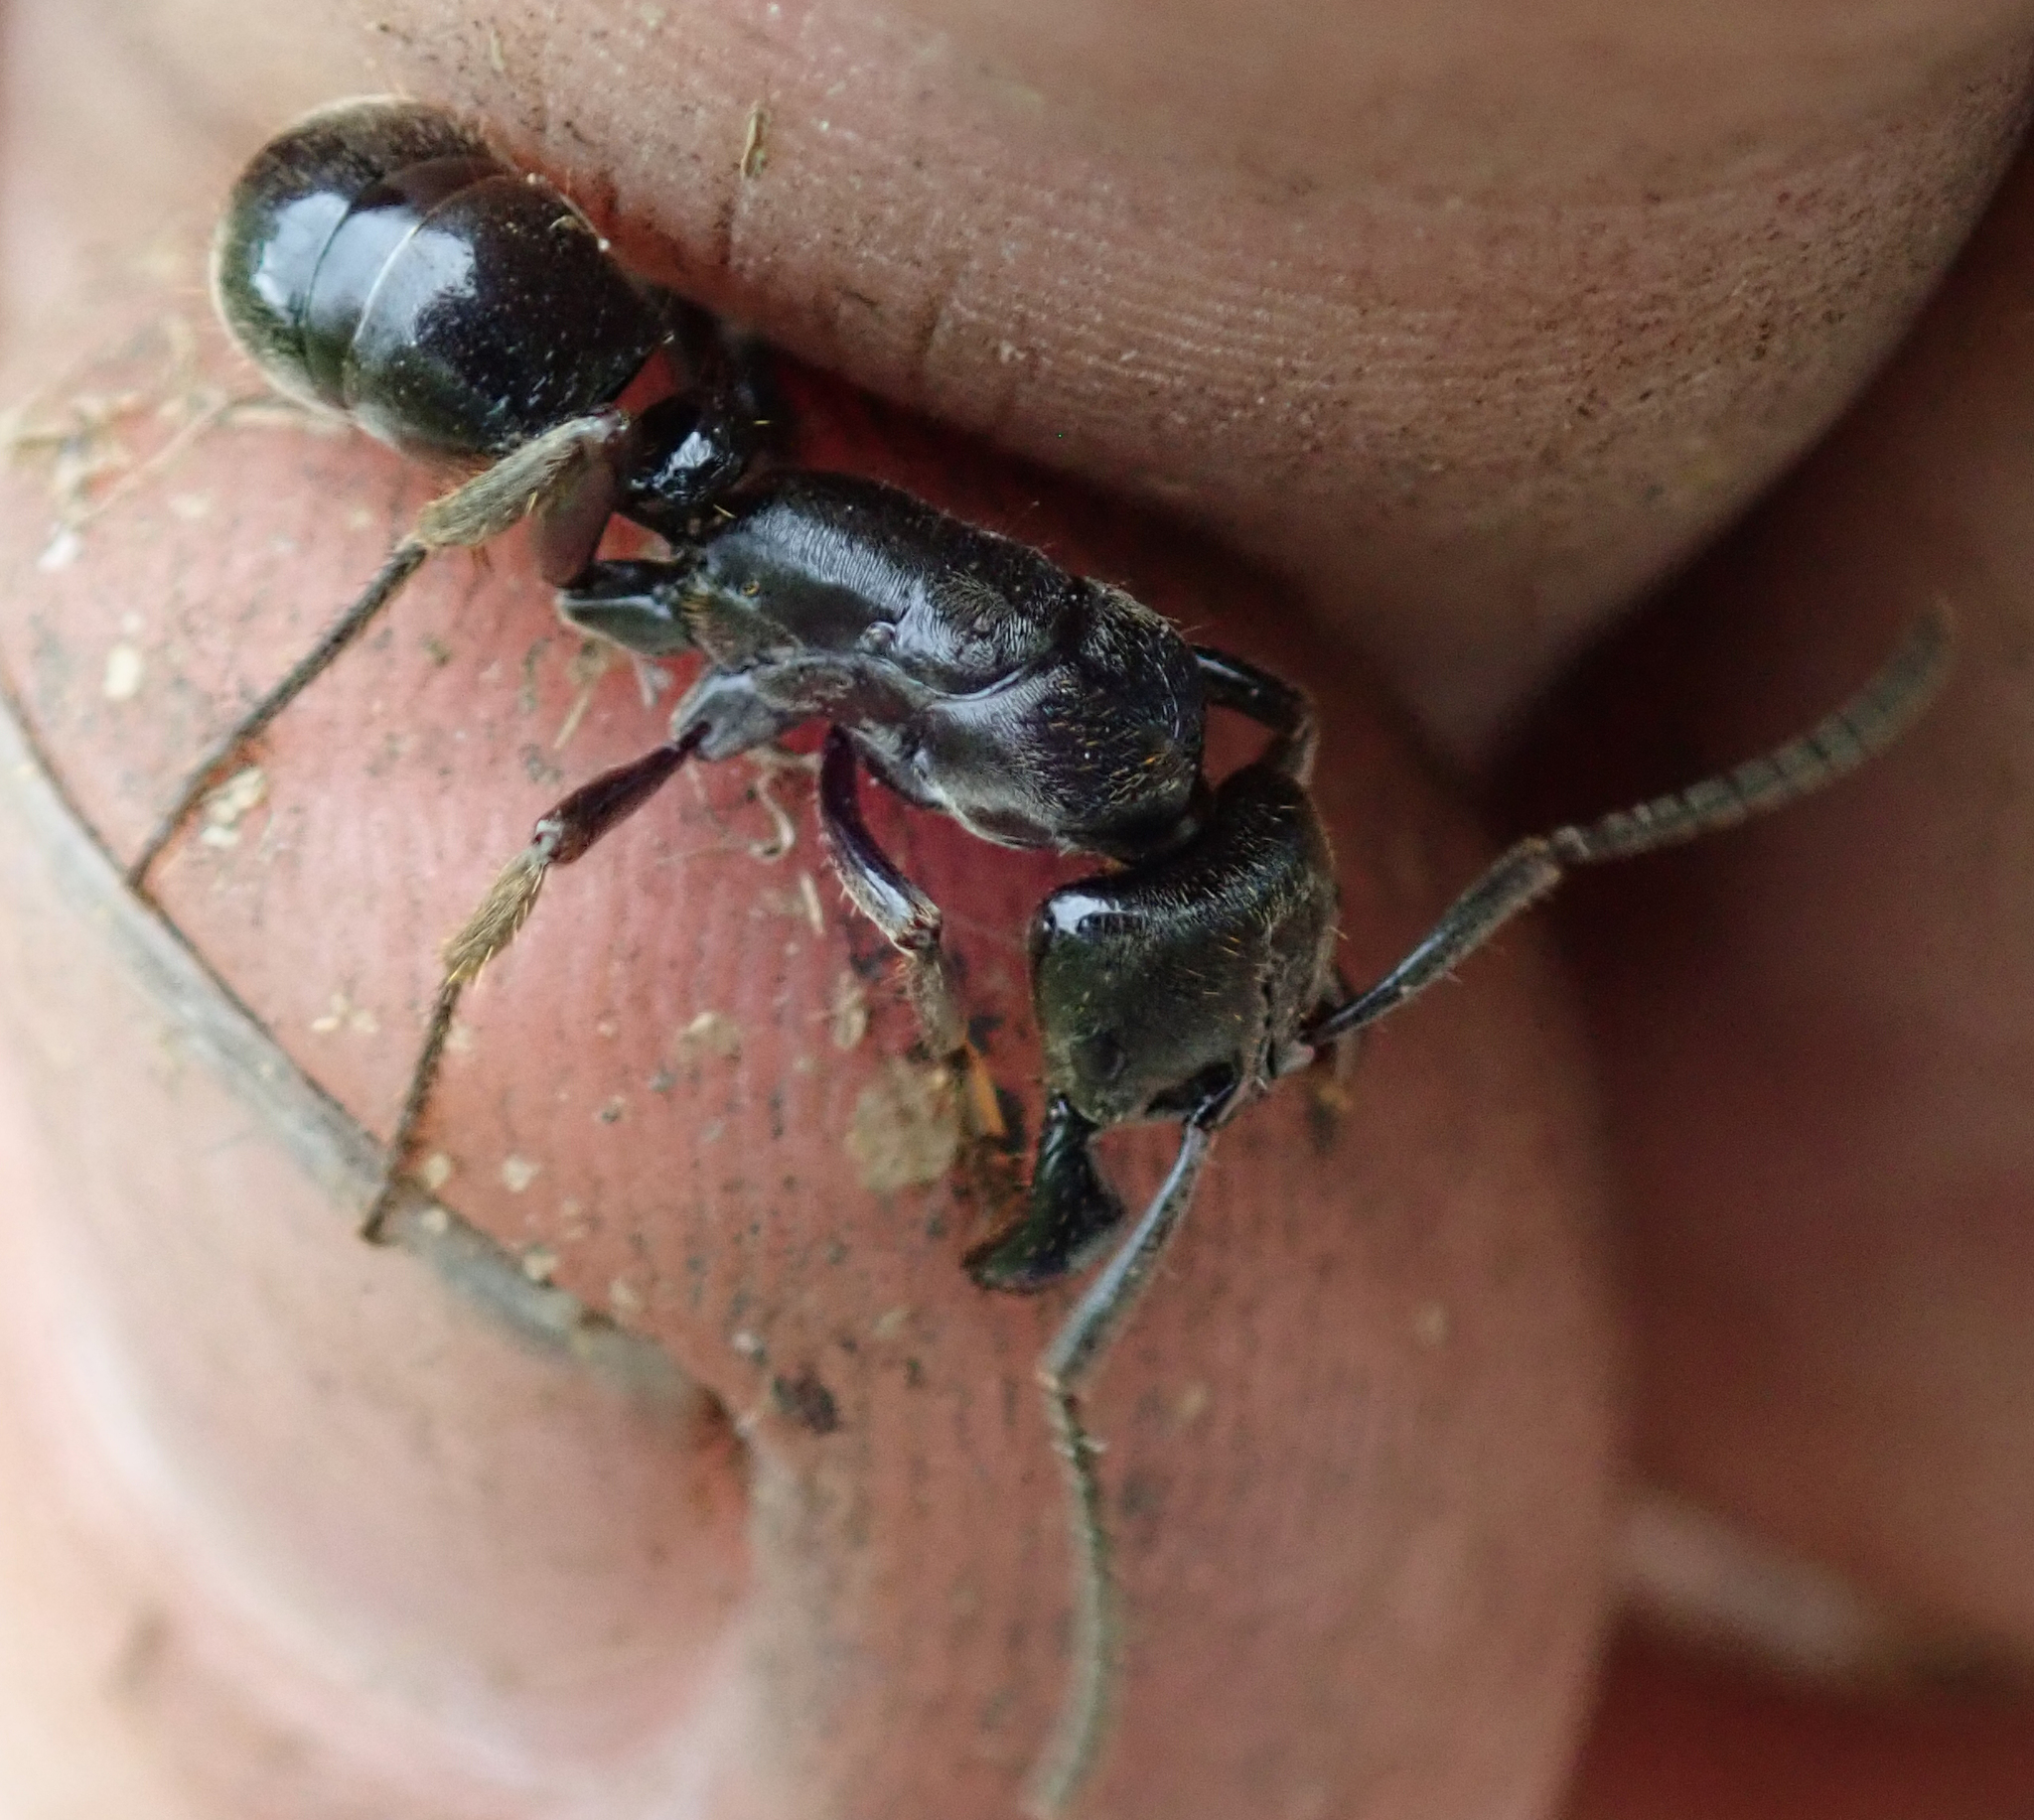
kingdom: Animalia
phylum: Arthropoda
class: Insecta
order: Hymenoptera
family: Formicidae
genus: Paltothyreus
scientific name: Paltothyreus tarsatus
